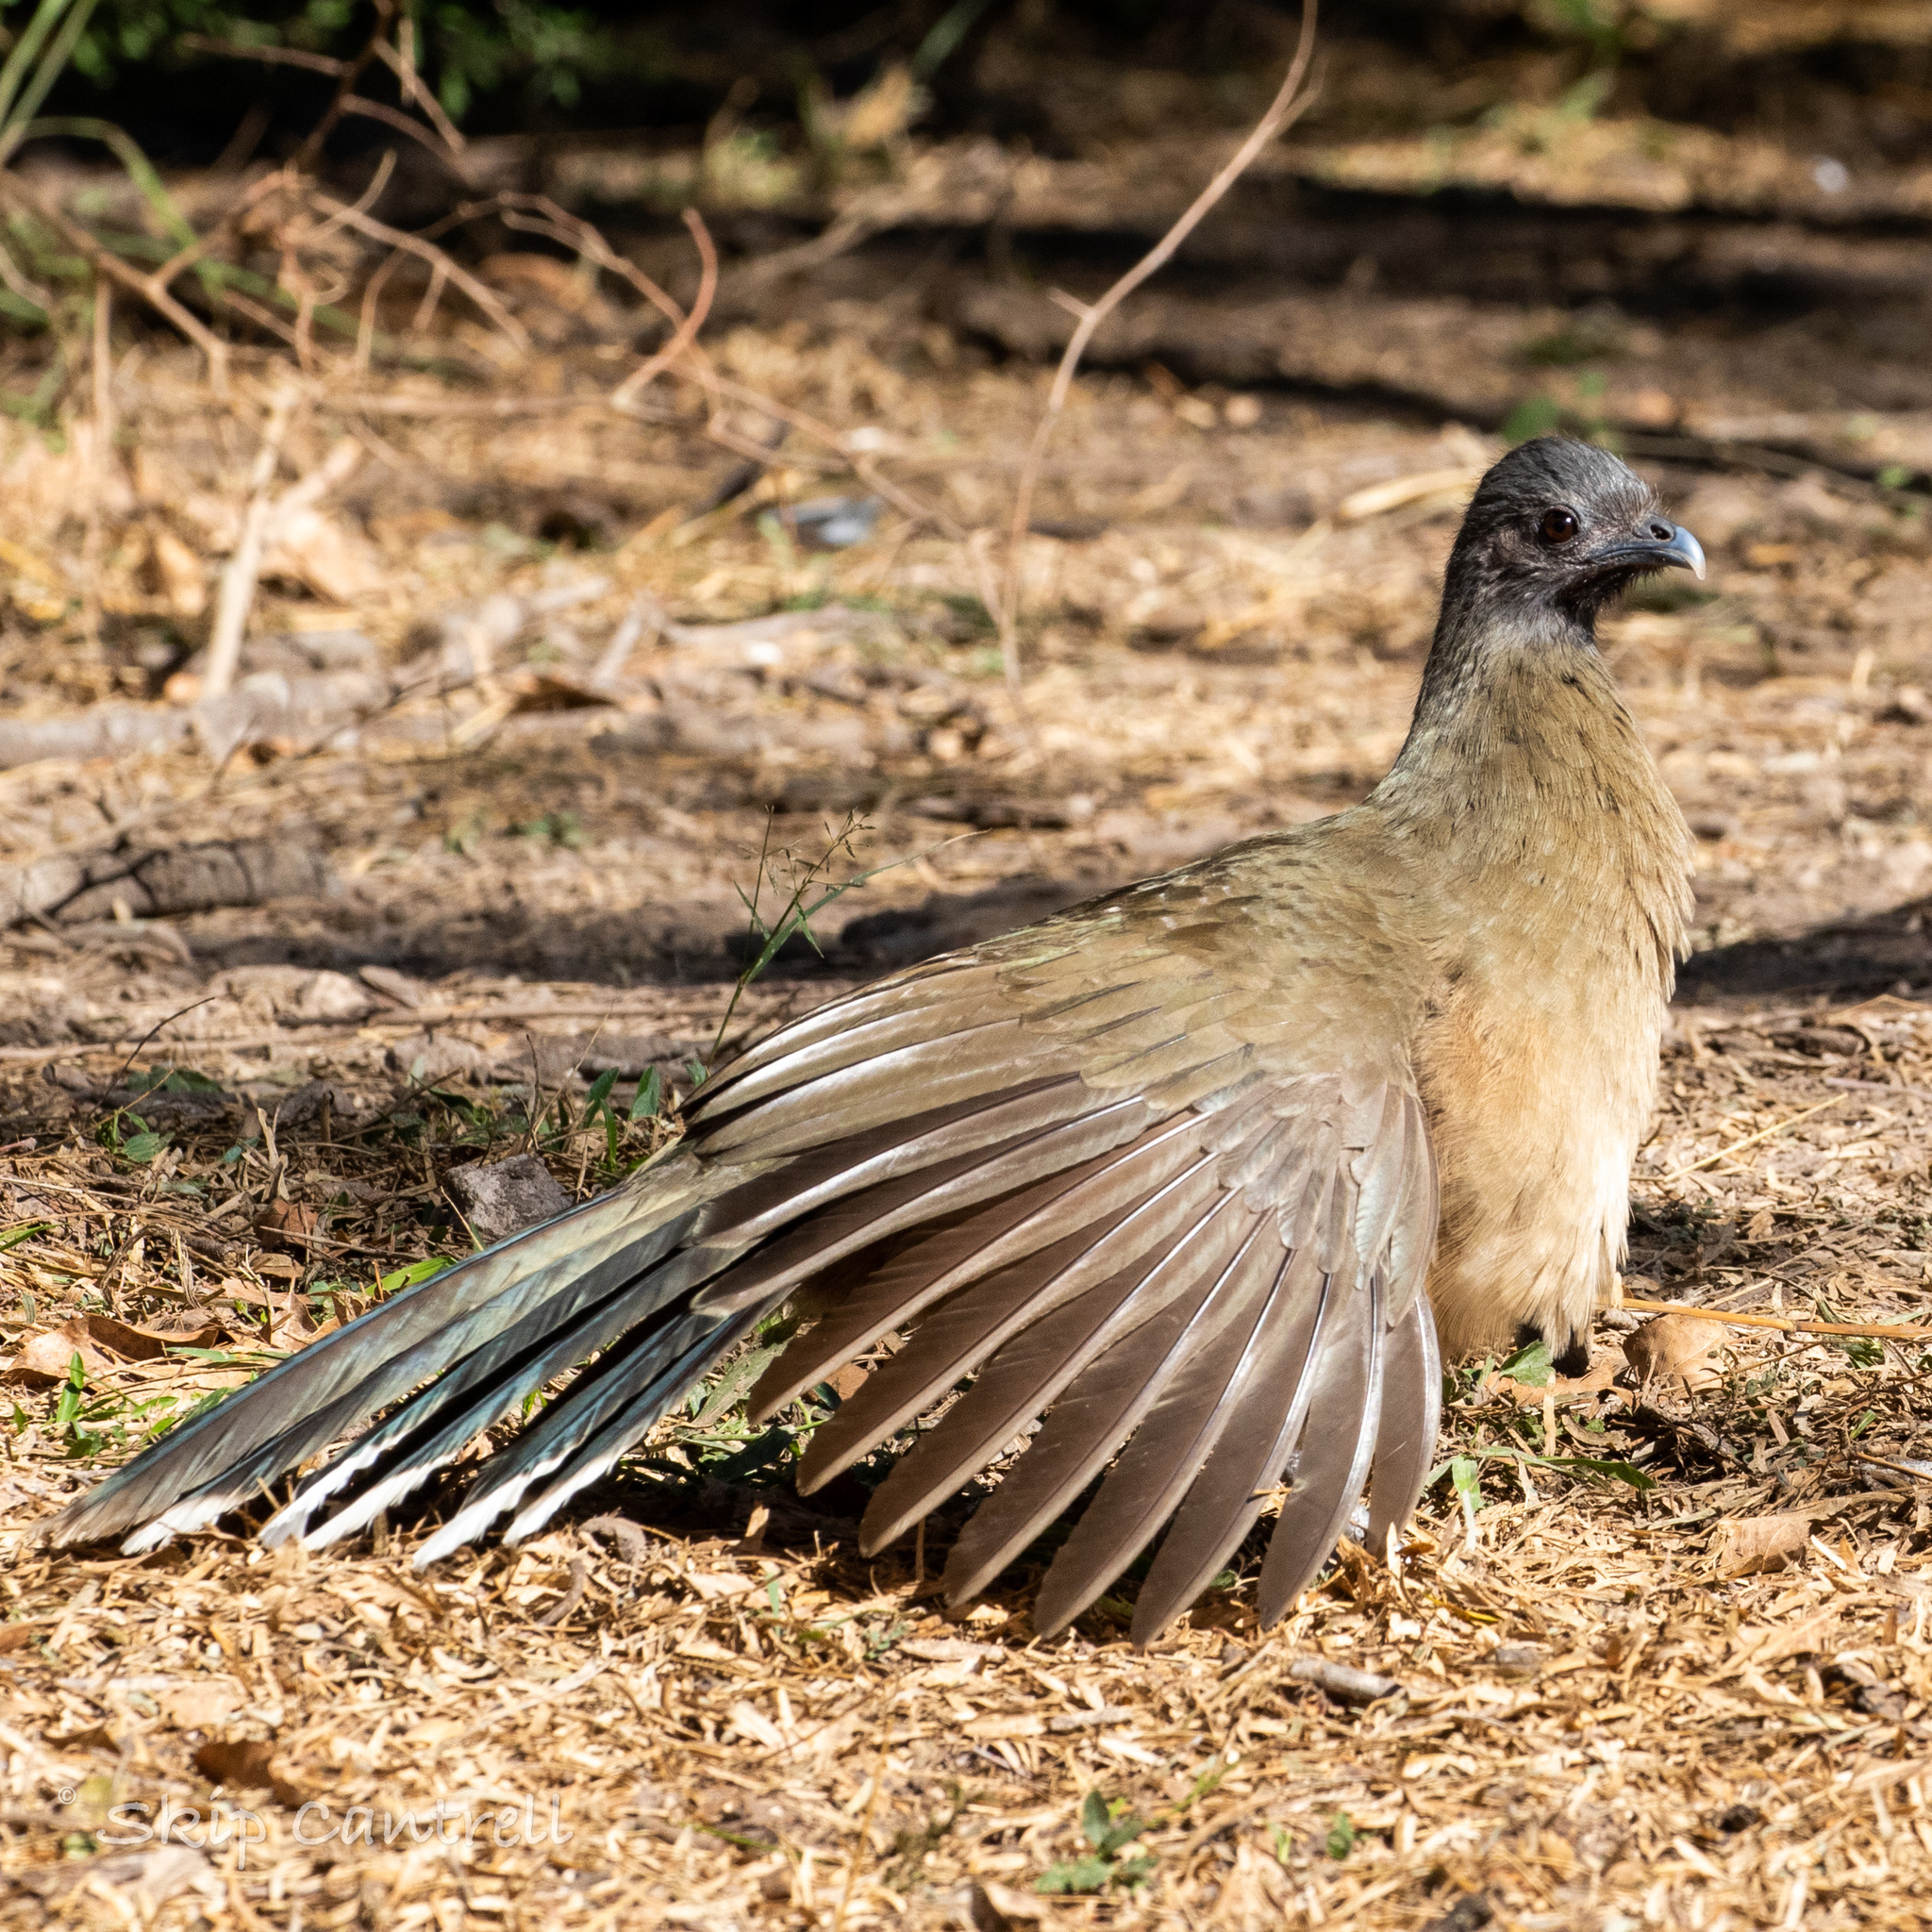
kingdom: Animalia
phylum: Chordata
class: Aves
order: Galliformes
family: Cracidae
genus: Ortalis
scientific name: Ortalis vetula
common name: Plain chachalaca
